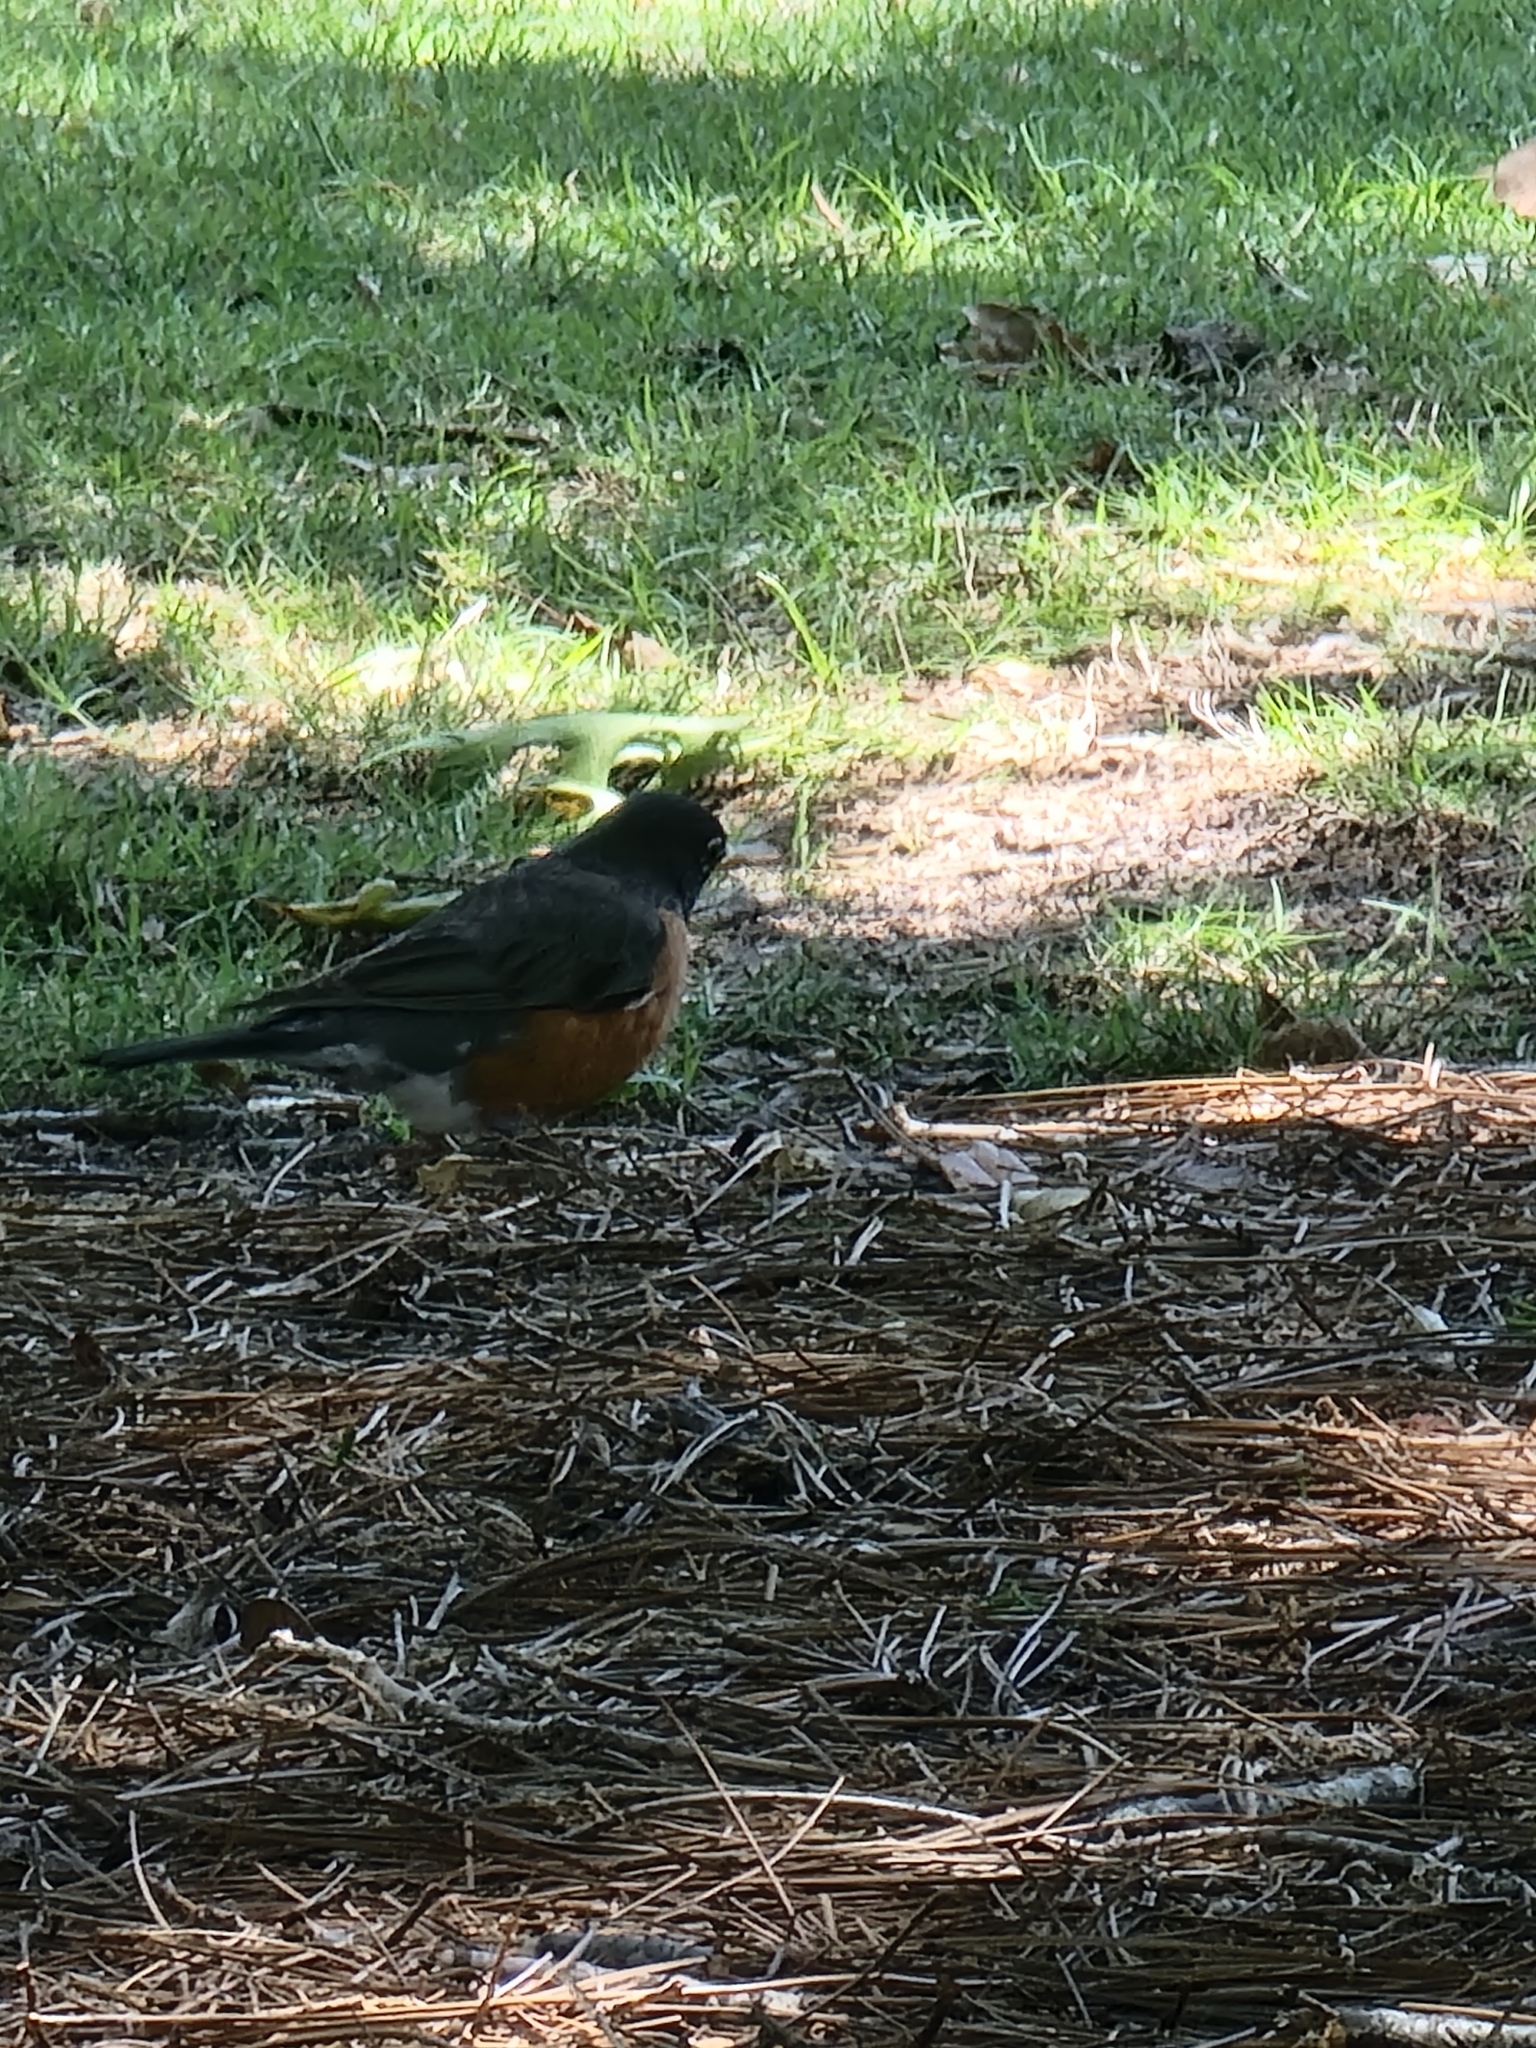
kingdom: Animalia
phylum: Chordata
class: Aves
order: Passeriformes
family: Turdidae
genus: Turdus
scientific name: Turdus migratorius
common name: American robin
